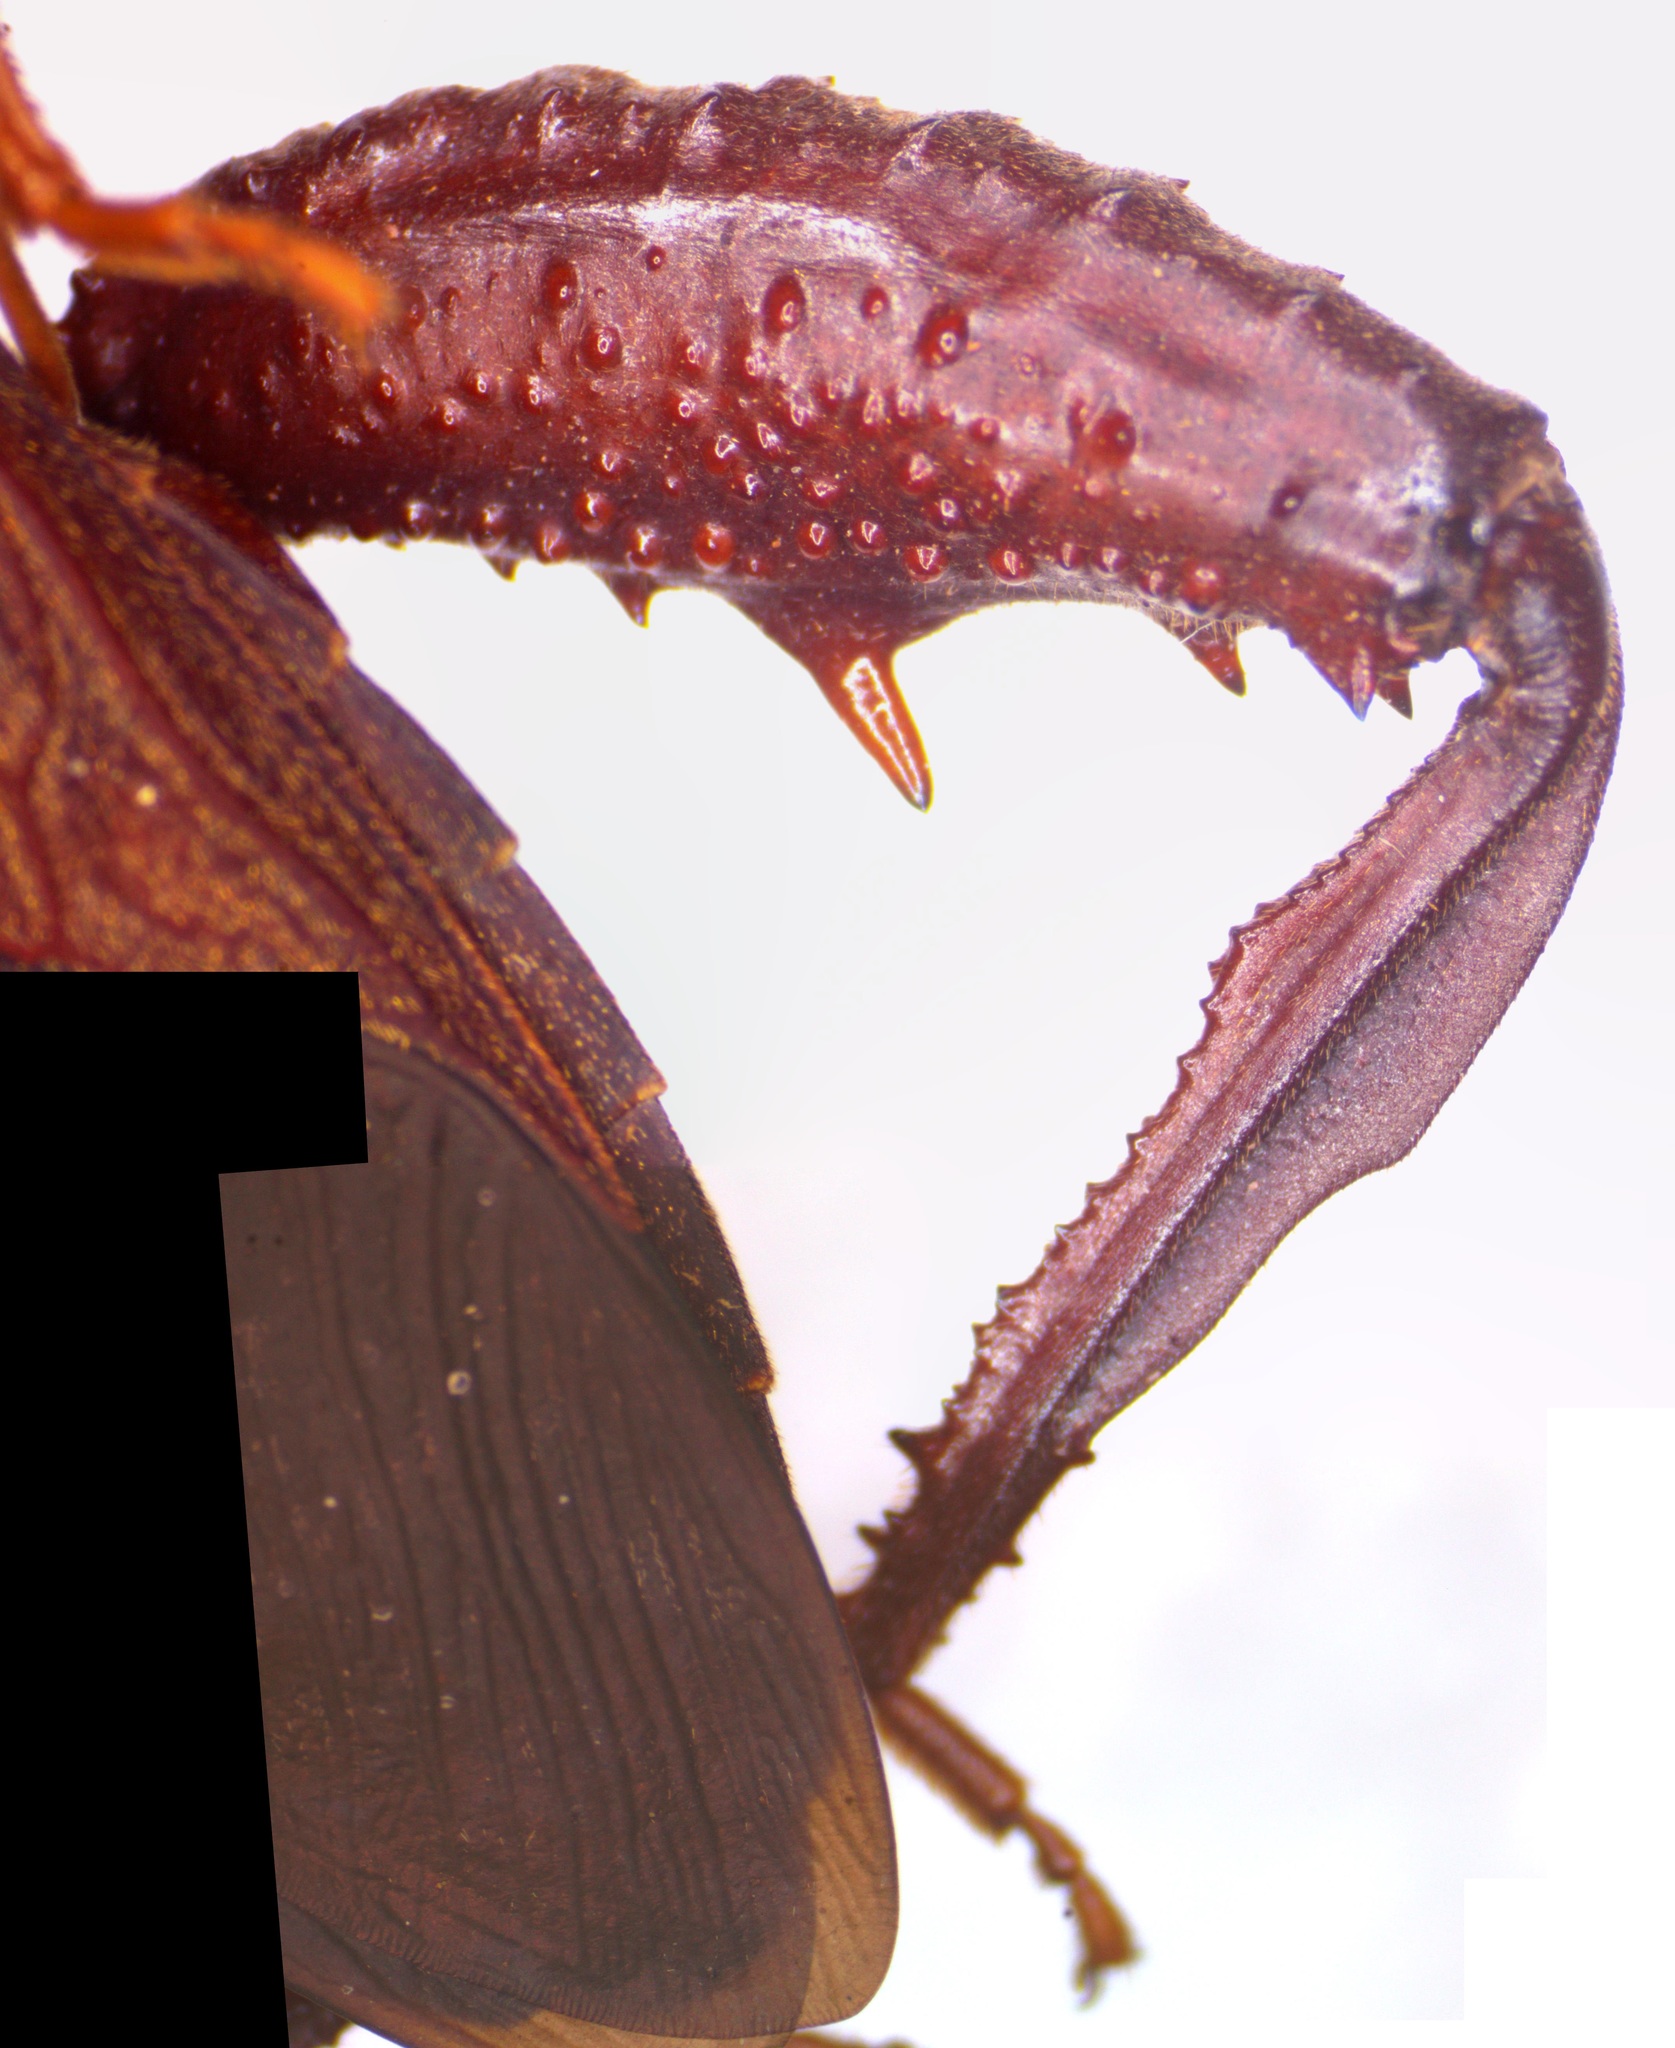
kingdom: Animalia
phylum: Arthropoda
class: Insecta
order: Hemiptera
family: Coreidae
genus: Acanthocephala
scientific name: Acanthocephala femorata
